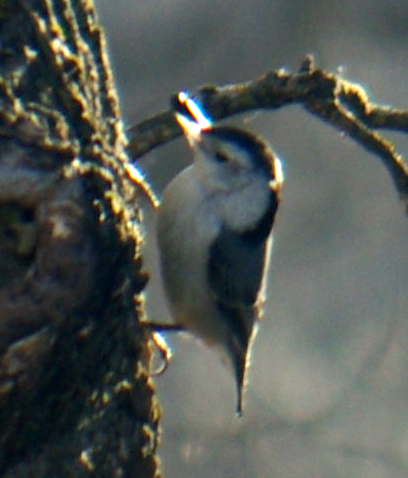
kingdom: Animalia
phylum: Chordata
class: Aves
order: Passeriformes
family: Sittidae
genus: Sitta
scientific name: Sitta carolinensis
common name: White-breasted nuthatch
